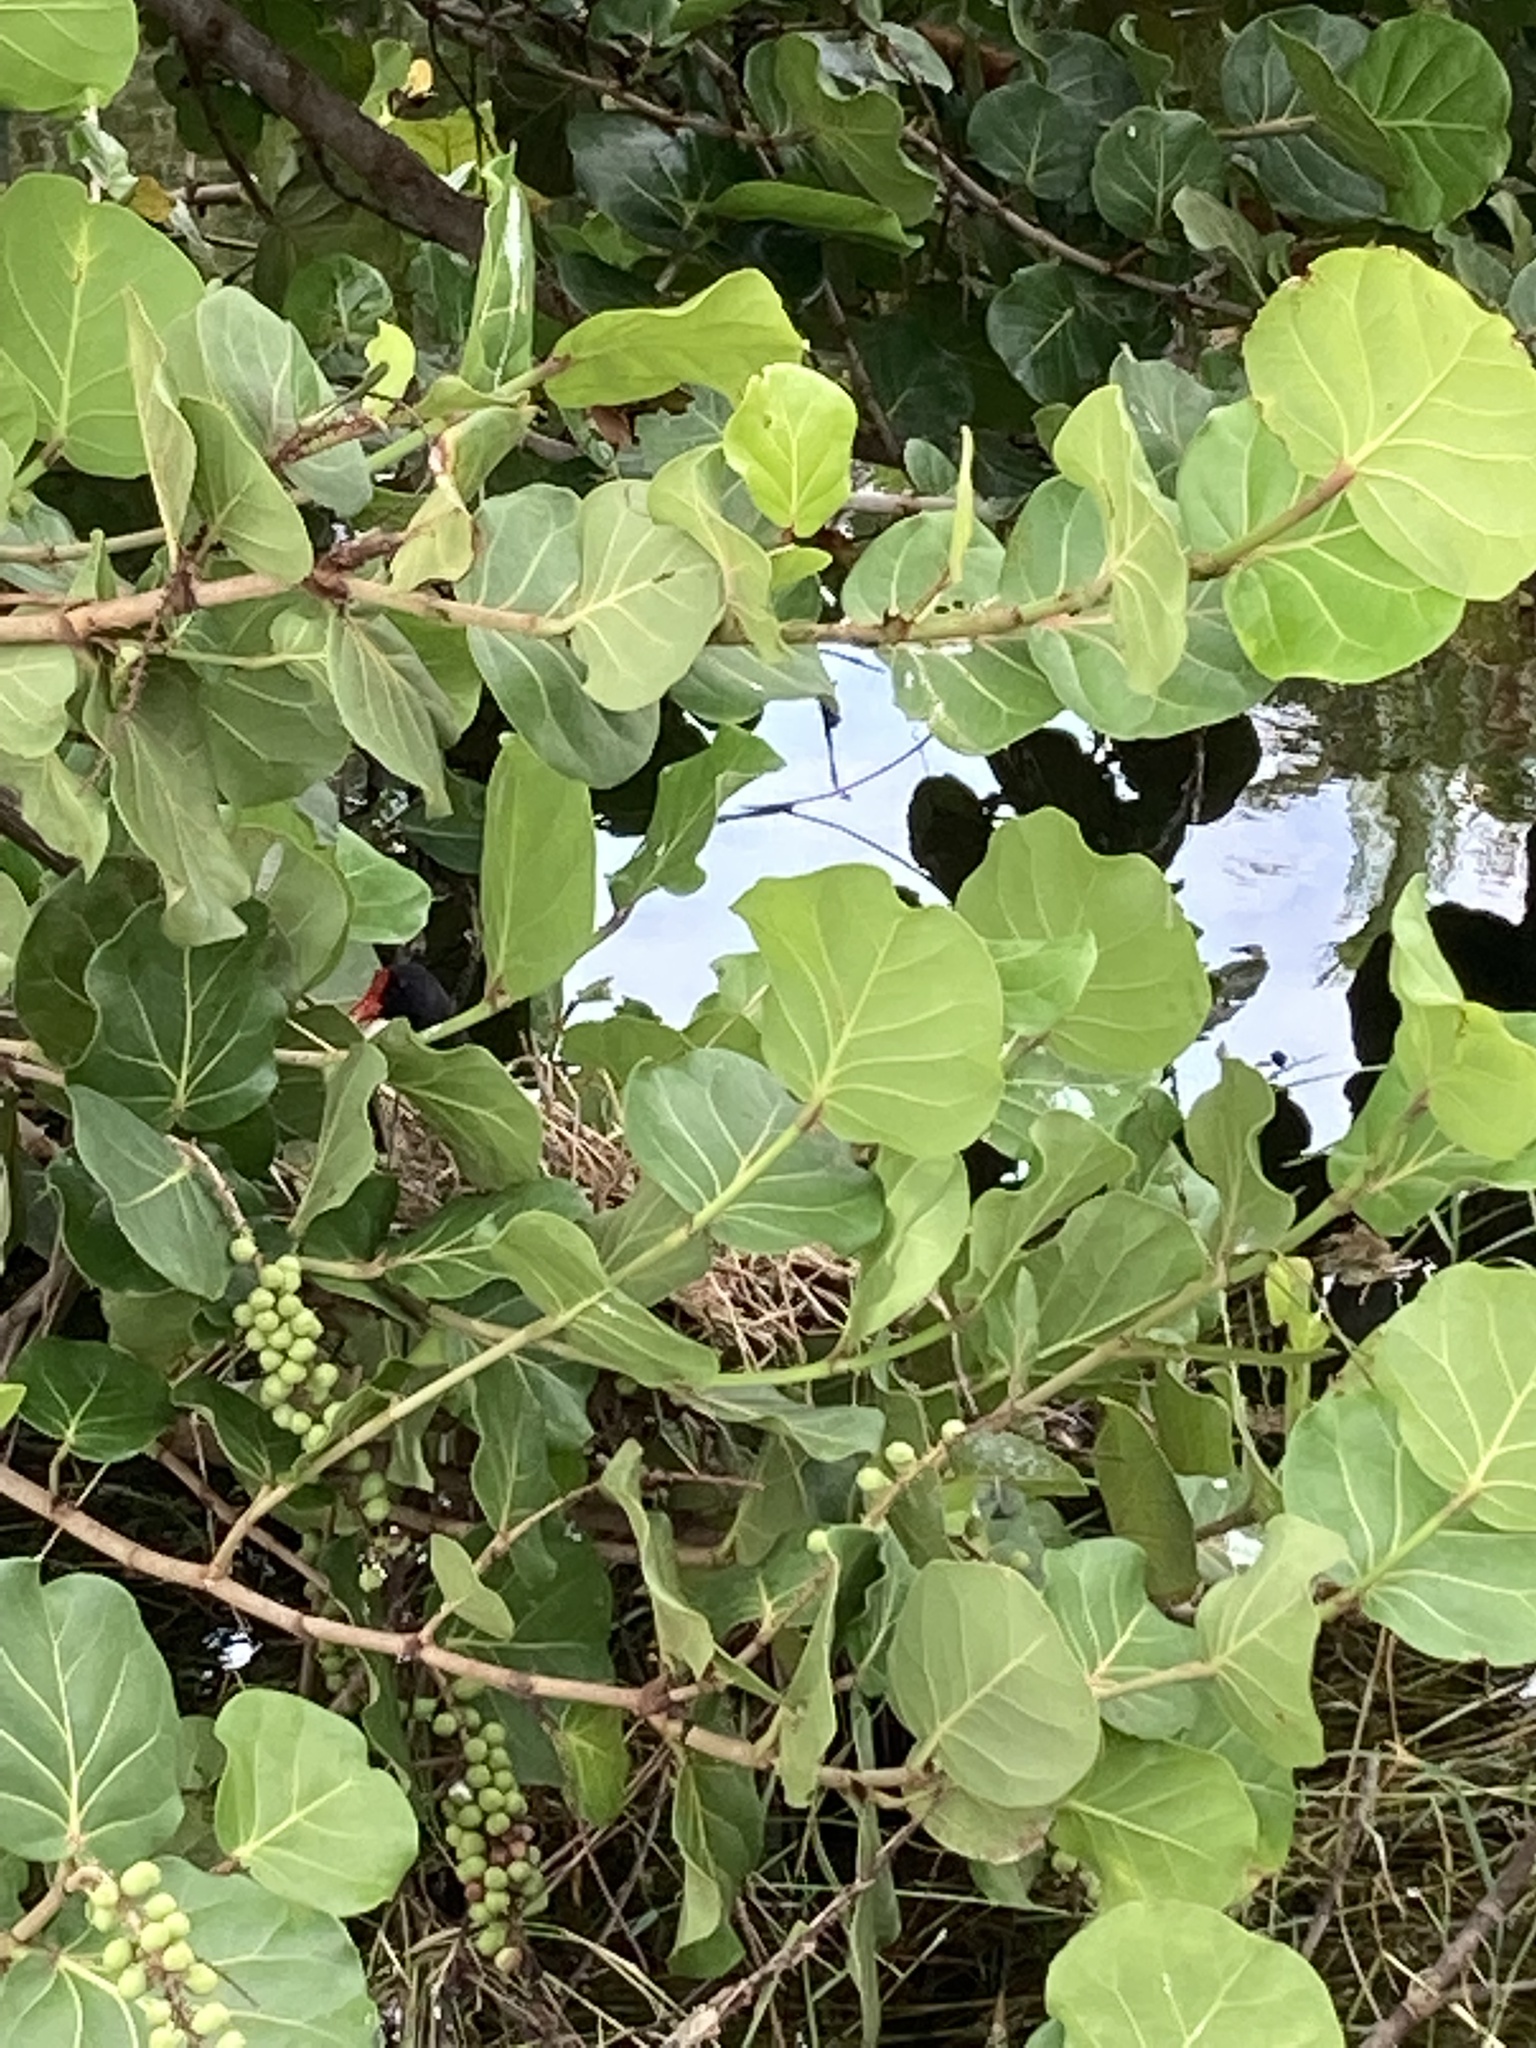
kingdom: Animalia
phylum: Chordata
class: Aves
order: Gruiformes
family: Rallidae
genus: Gallinula
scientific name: Gallinula chloropus
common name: Common moorhen
